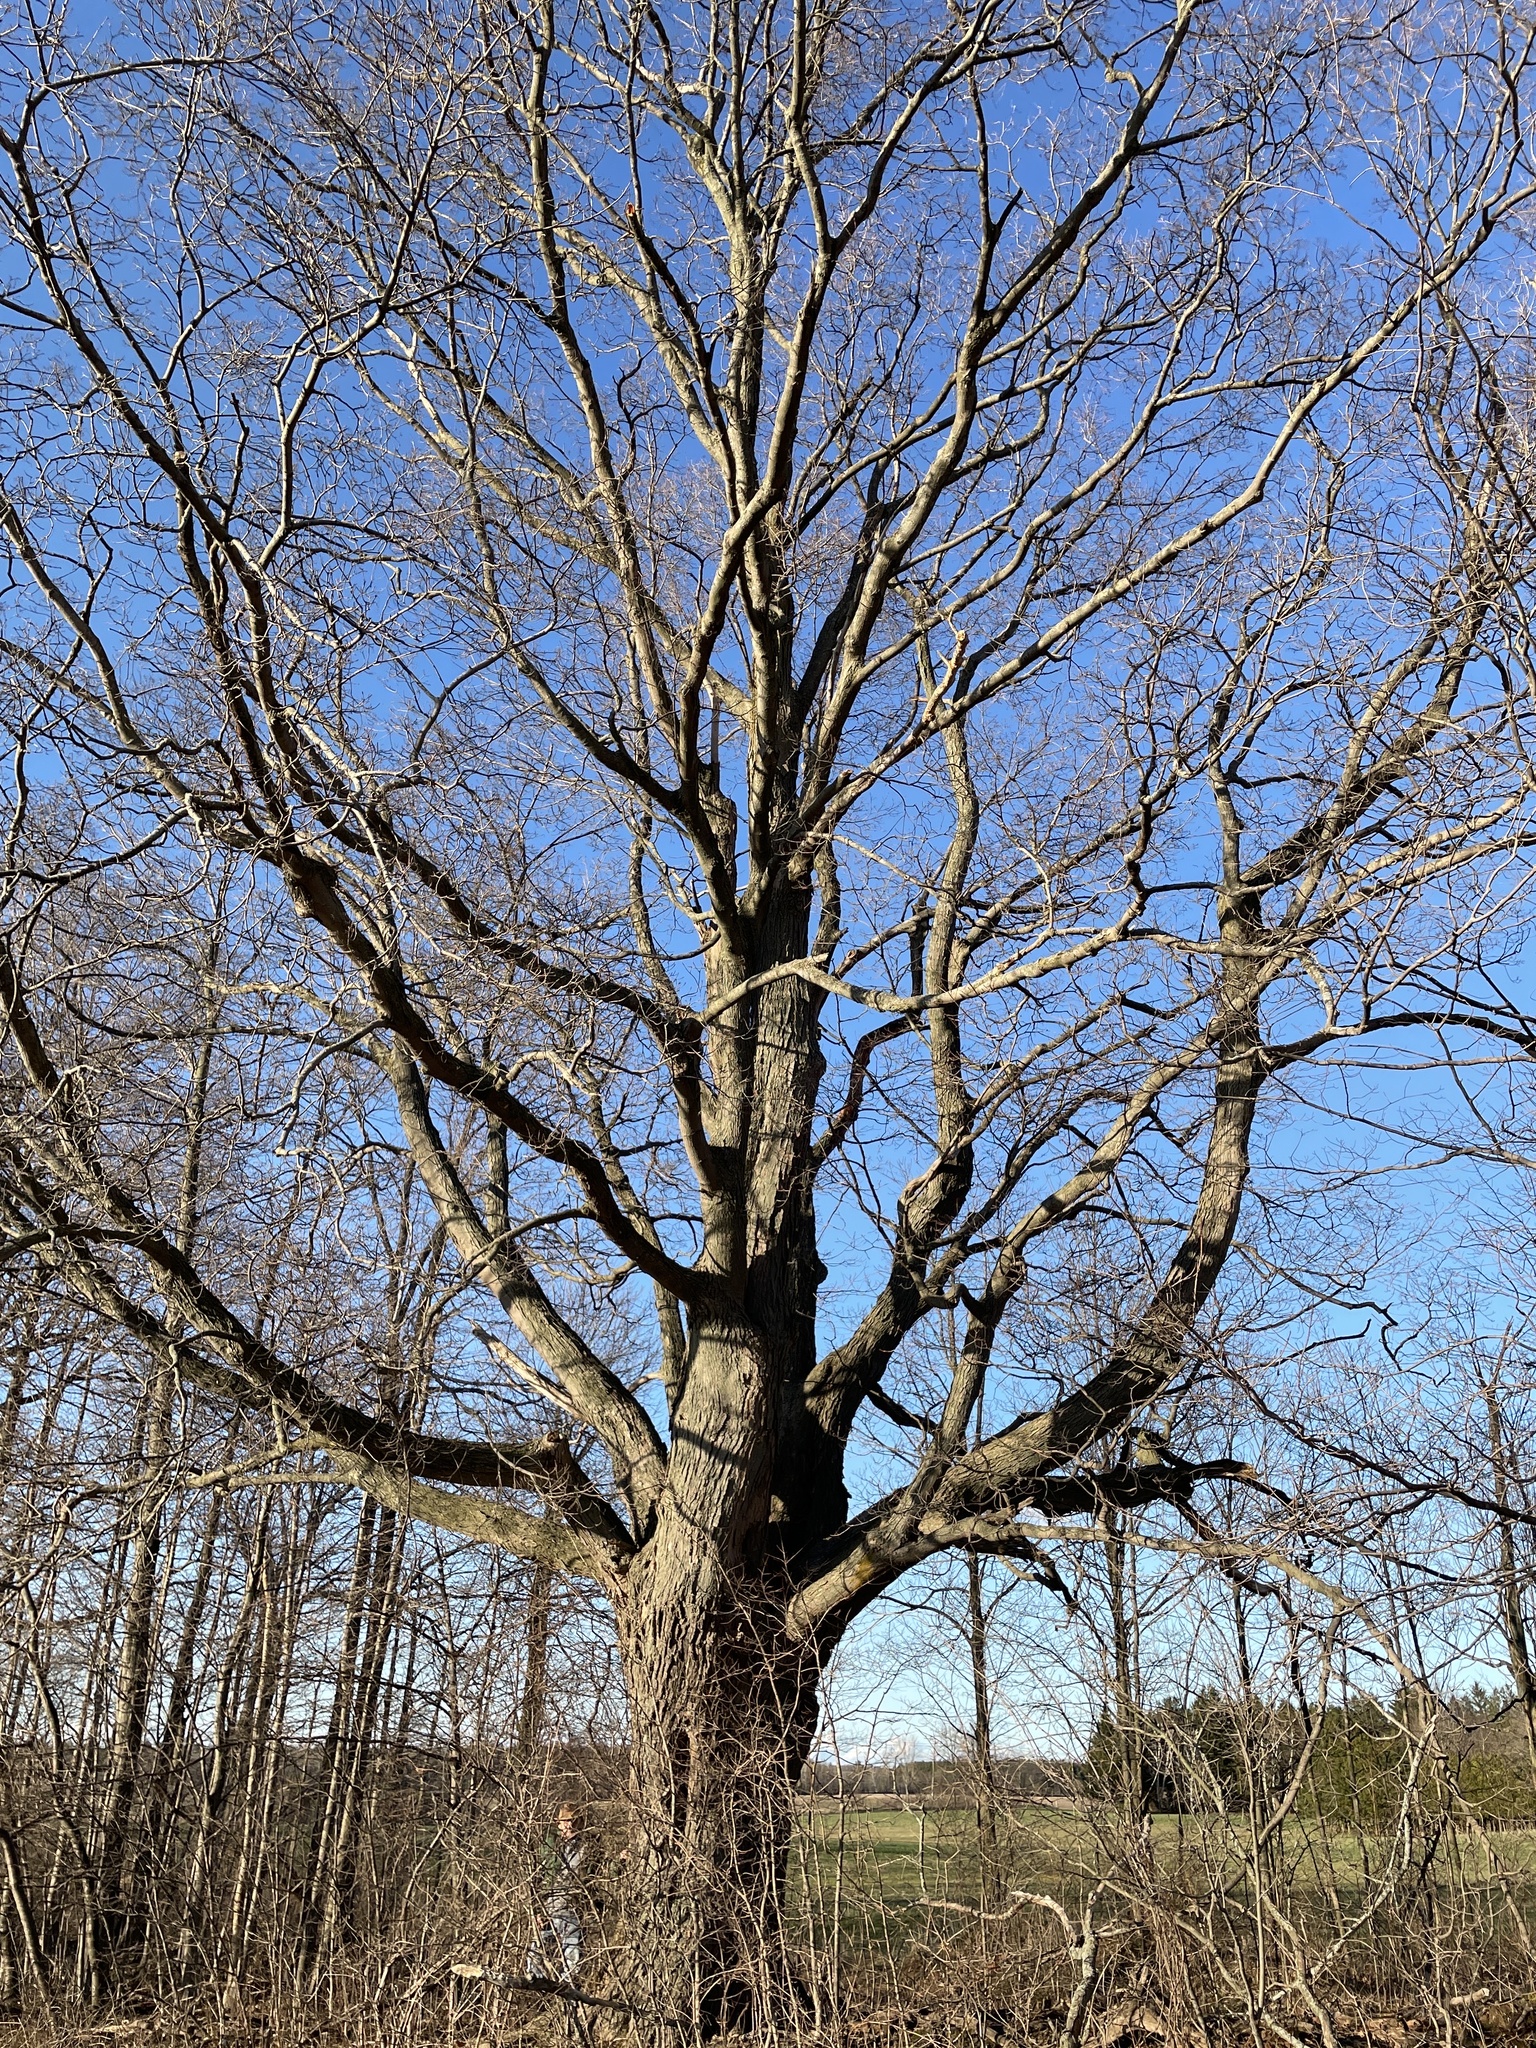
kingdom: Plantae
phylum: Tracheophyta
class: Magnoliopsida
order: Sapindales
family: Sapindaceae
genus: Acer
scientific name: Acer saccharum
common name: Sugar maple
